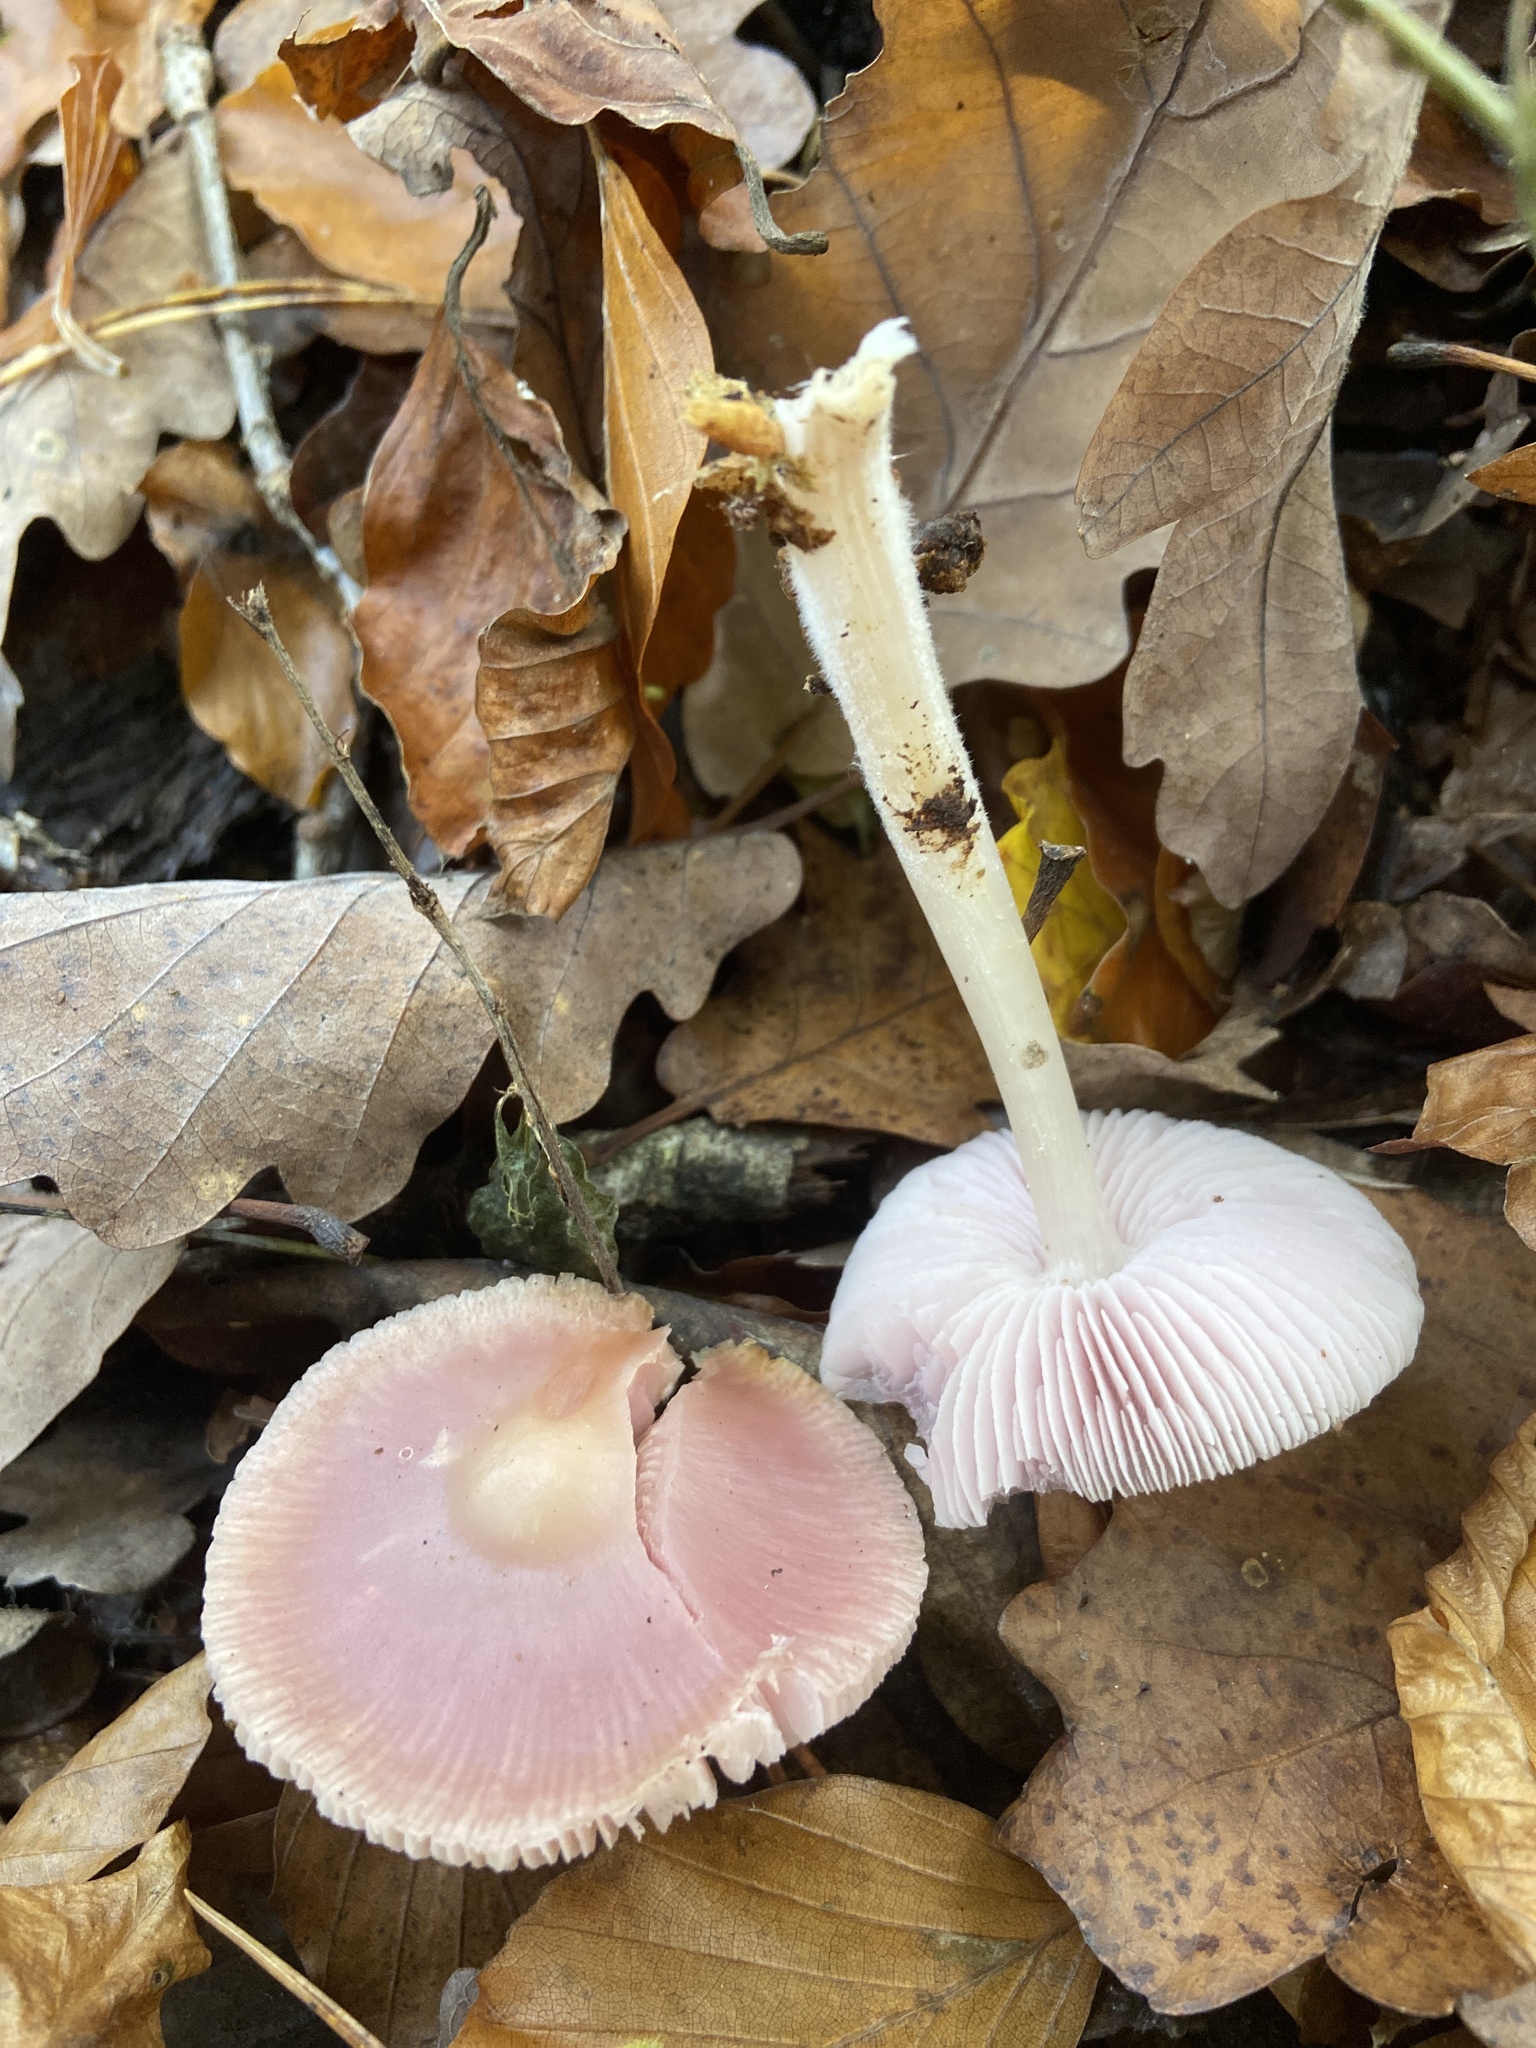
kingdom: Fungi
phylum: Basidiomycota
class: Agaricomycetes
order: Agaricales
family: Mycenaceae
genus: Mycena
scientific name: Mycena rosea
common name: Rosy bonnet
